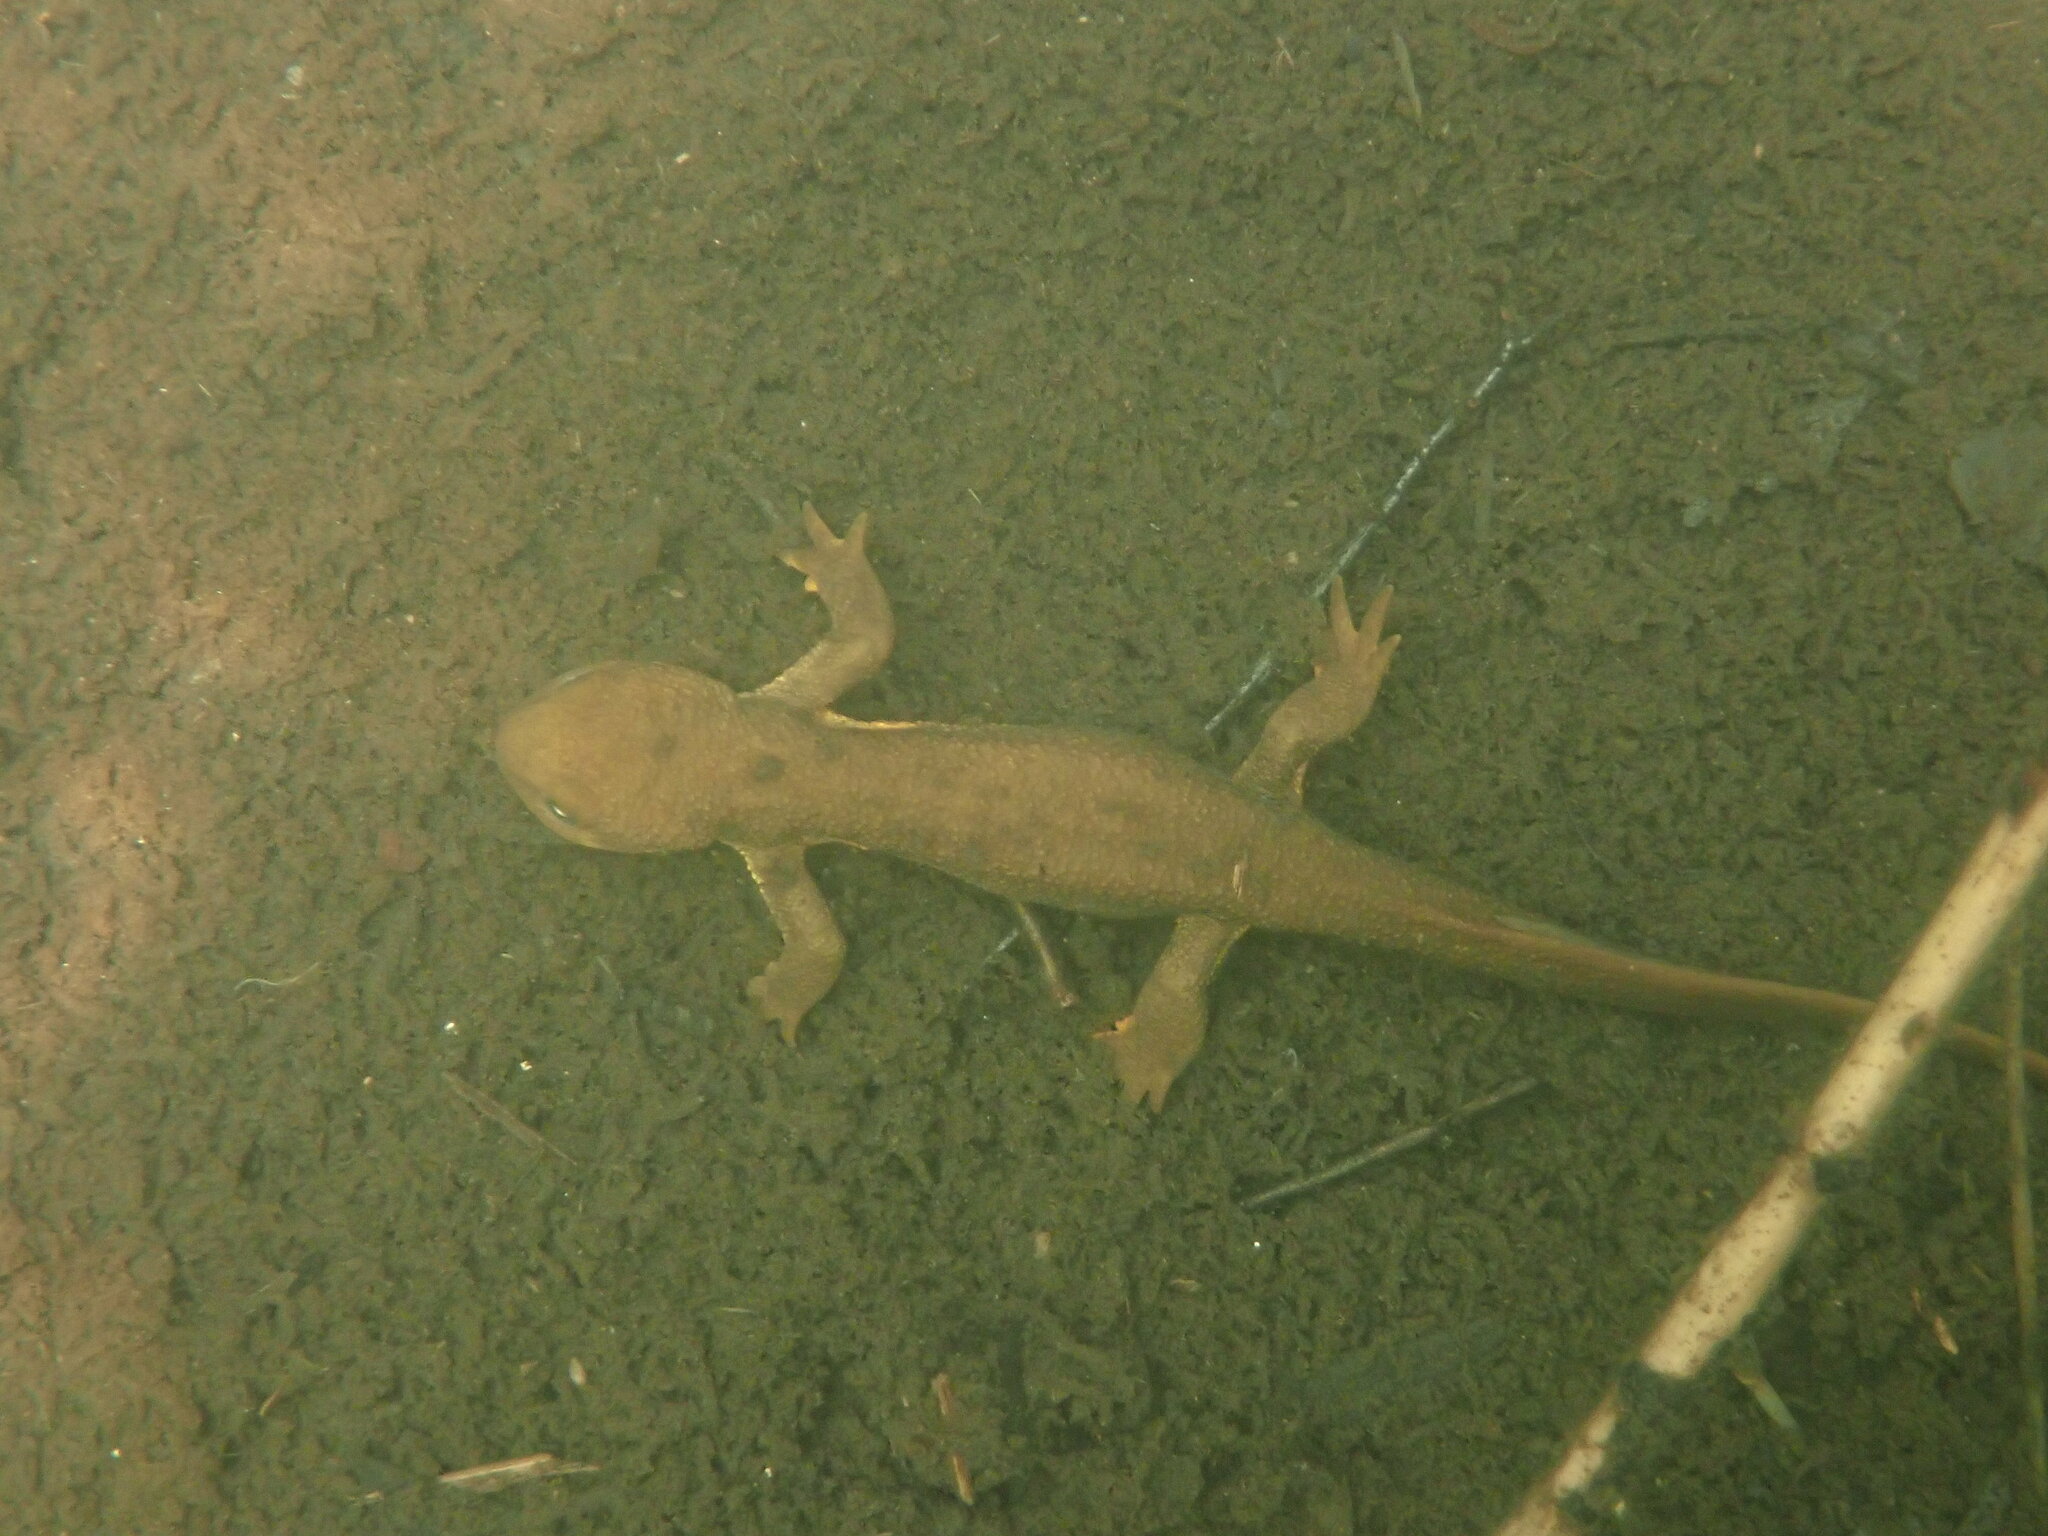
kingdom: Animalia
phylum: Chordata
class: Amphibia
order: Caudata
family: Salamandridae
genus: Taricha
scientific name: Taricha granulosa
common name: Roughskin newt
